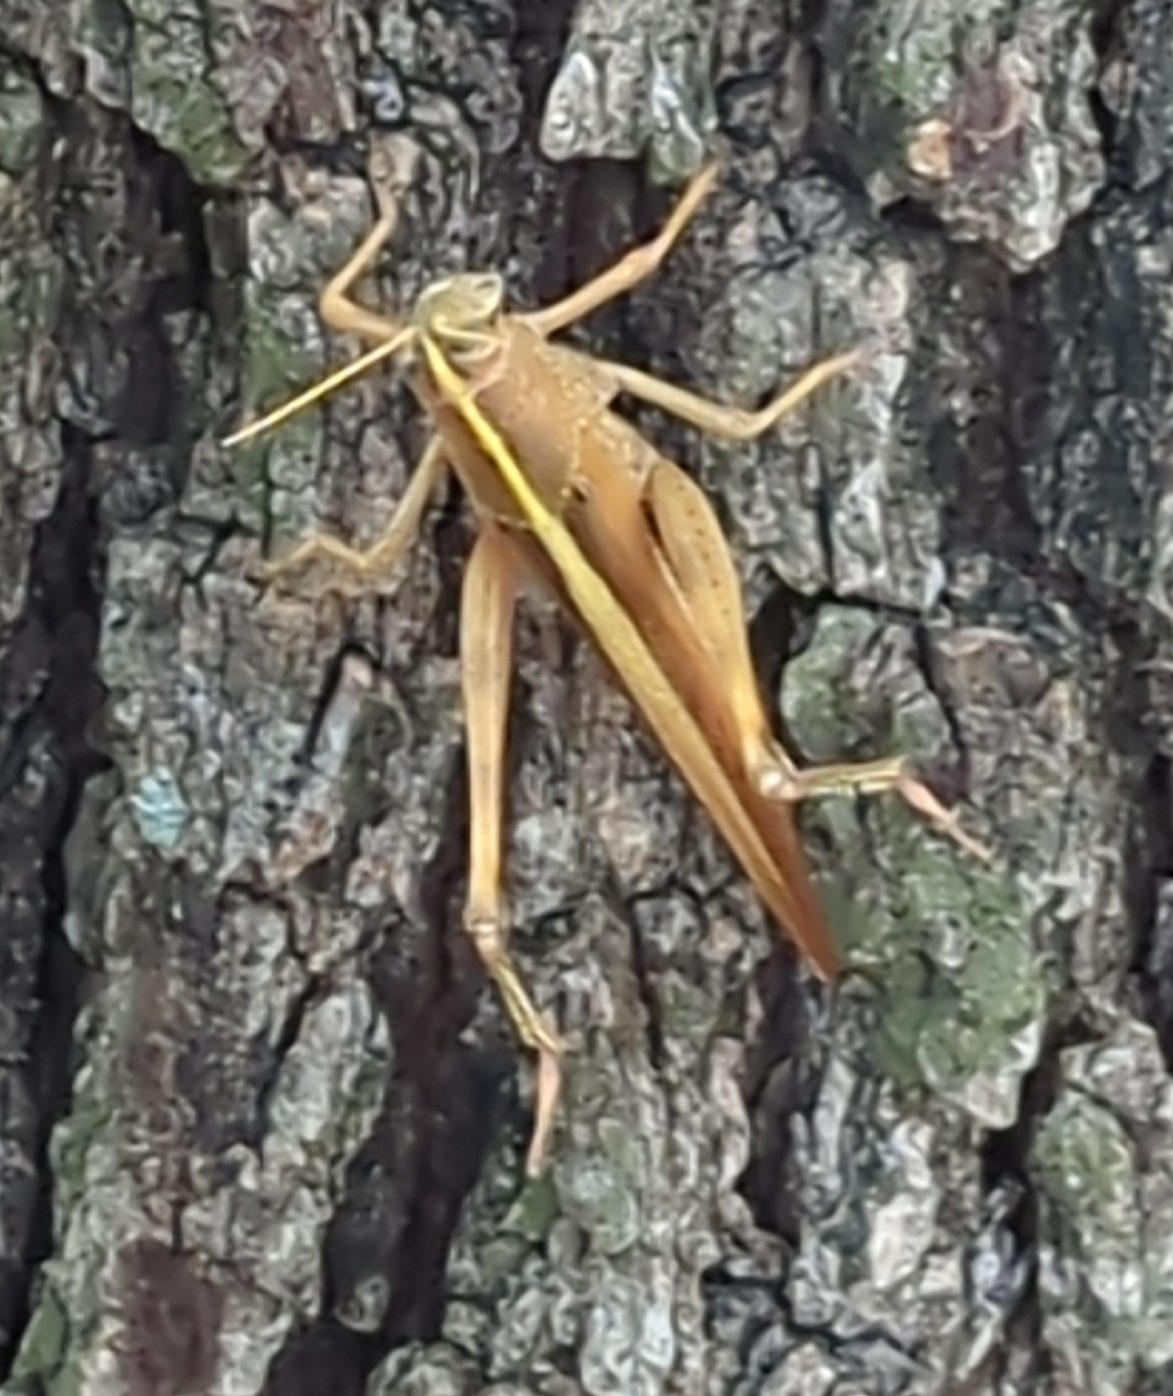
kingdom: Animalia
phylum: Arthropoda
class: Insecta
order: Orthoptera
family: Acrididae
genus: Schistocerca
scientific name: Schistocerca lineata
